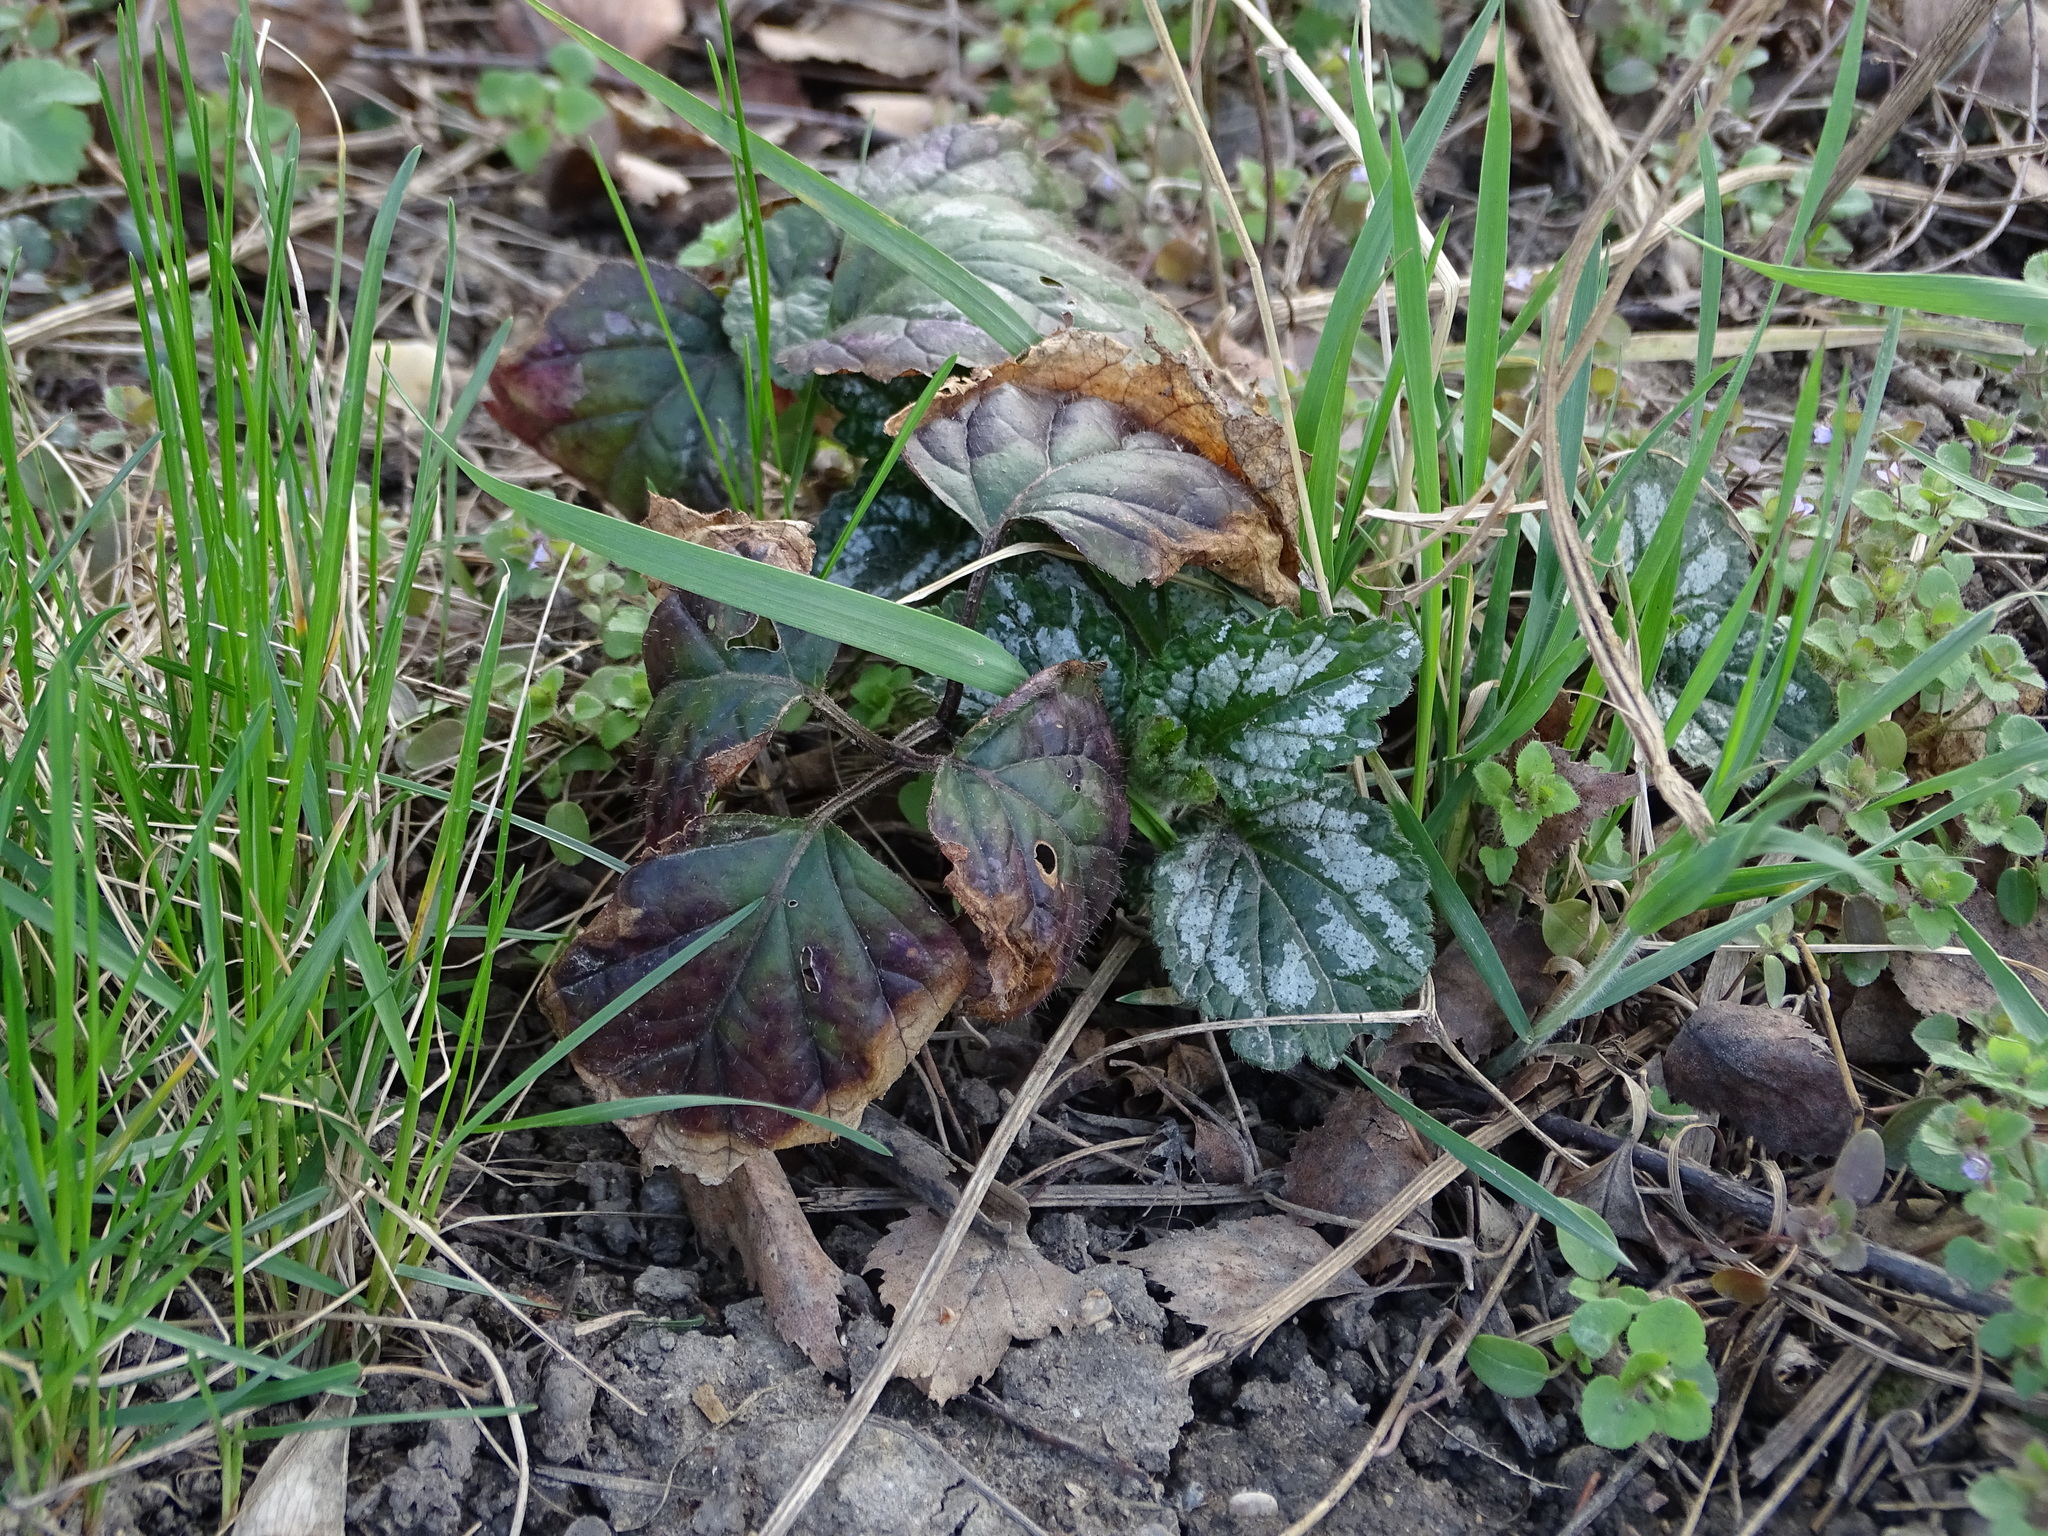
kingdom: Plantae
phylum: Tracheophyta
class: Magnoliopsida
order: Lamiales
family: Lamiaceae
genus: Lamium
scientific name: Lamium galeobdolon
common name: Yellow archangel
